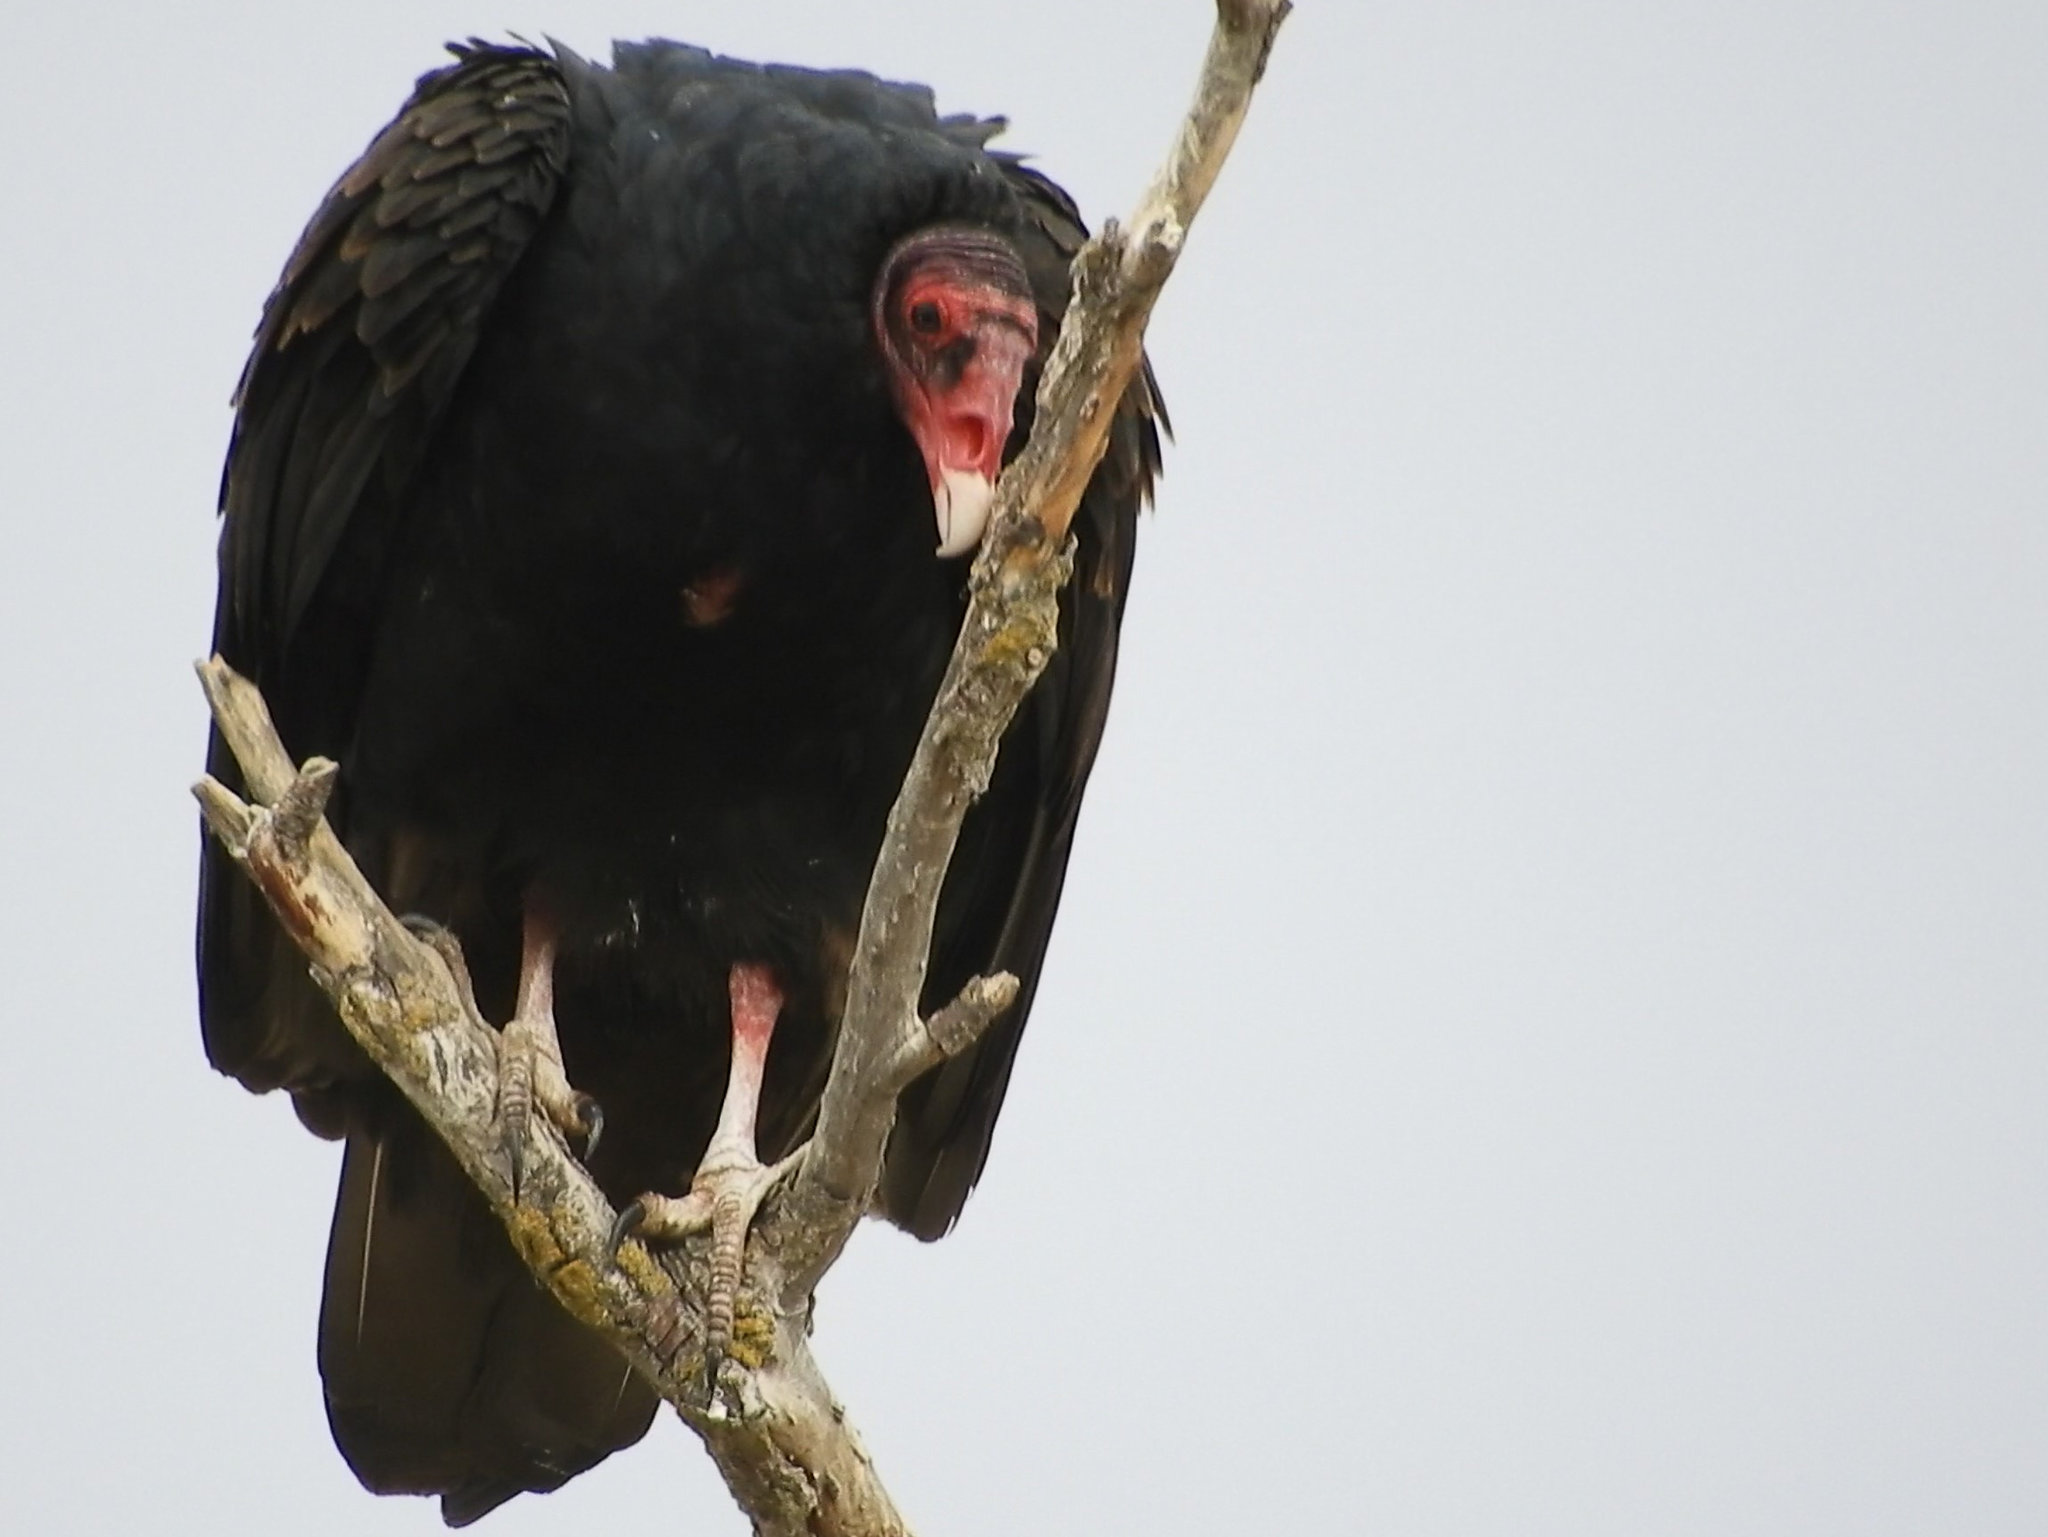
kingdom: Animalia
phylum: Chordata
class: Aves
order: Accipitriformes
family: Cathartidae
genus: Cathartes
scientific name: Cathartes aura
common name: Turkey vulture
